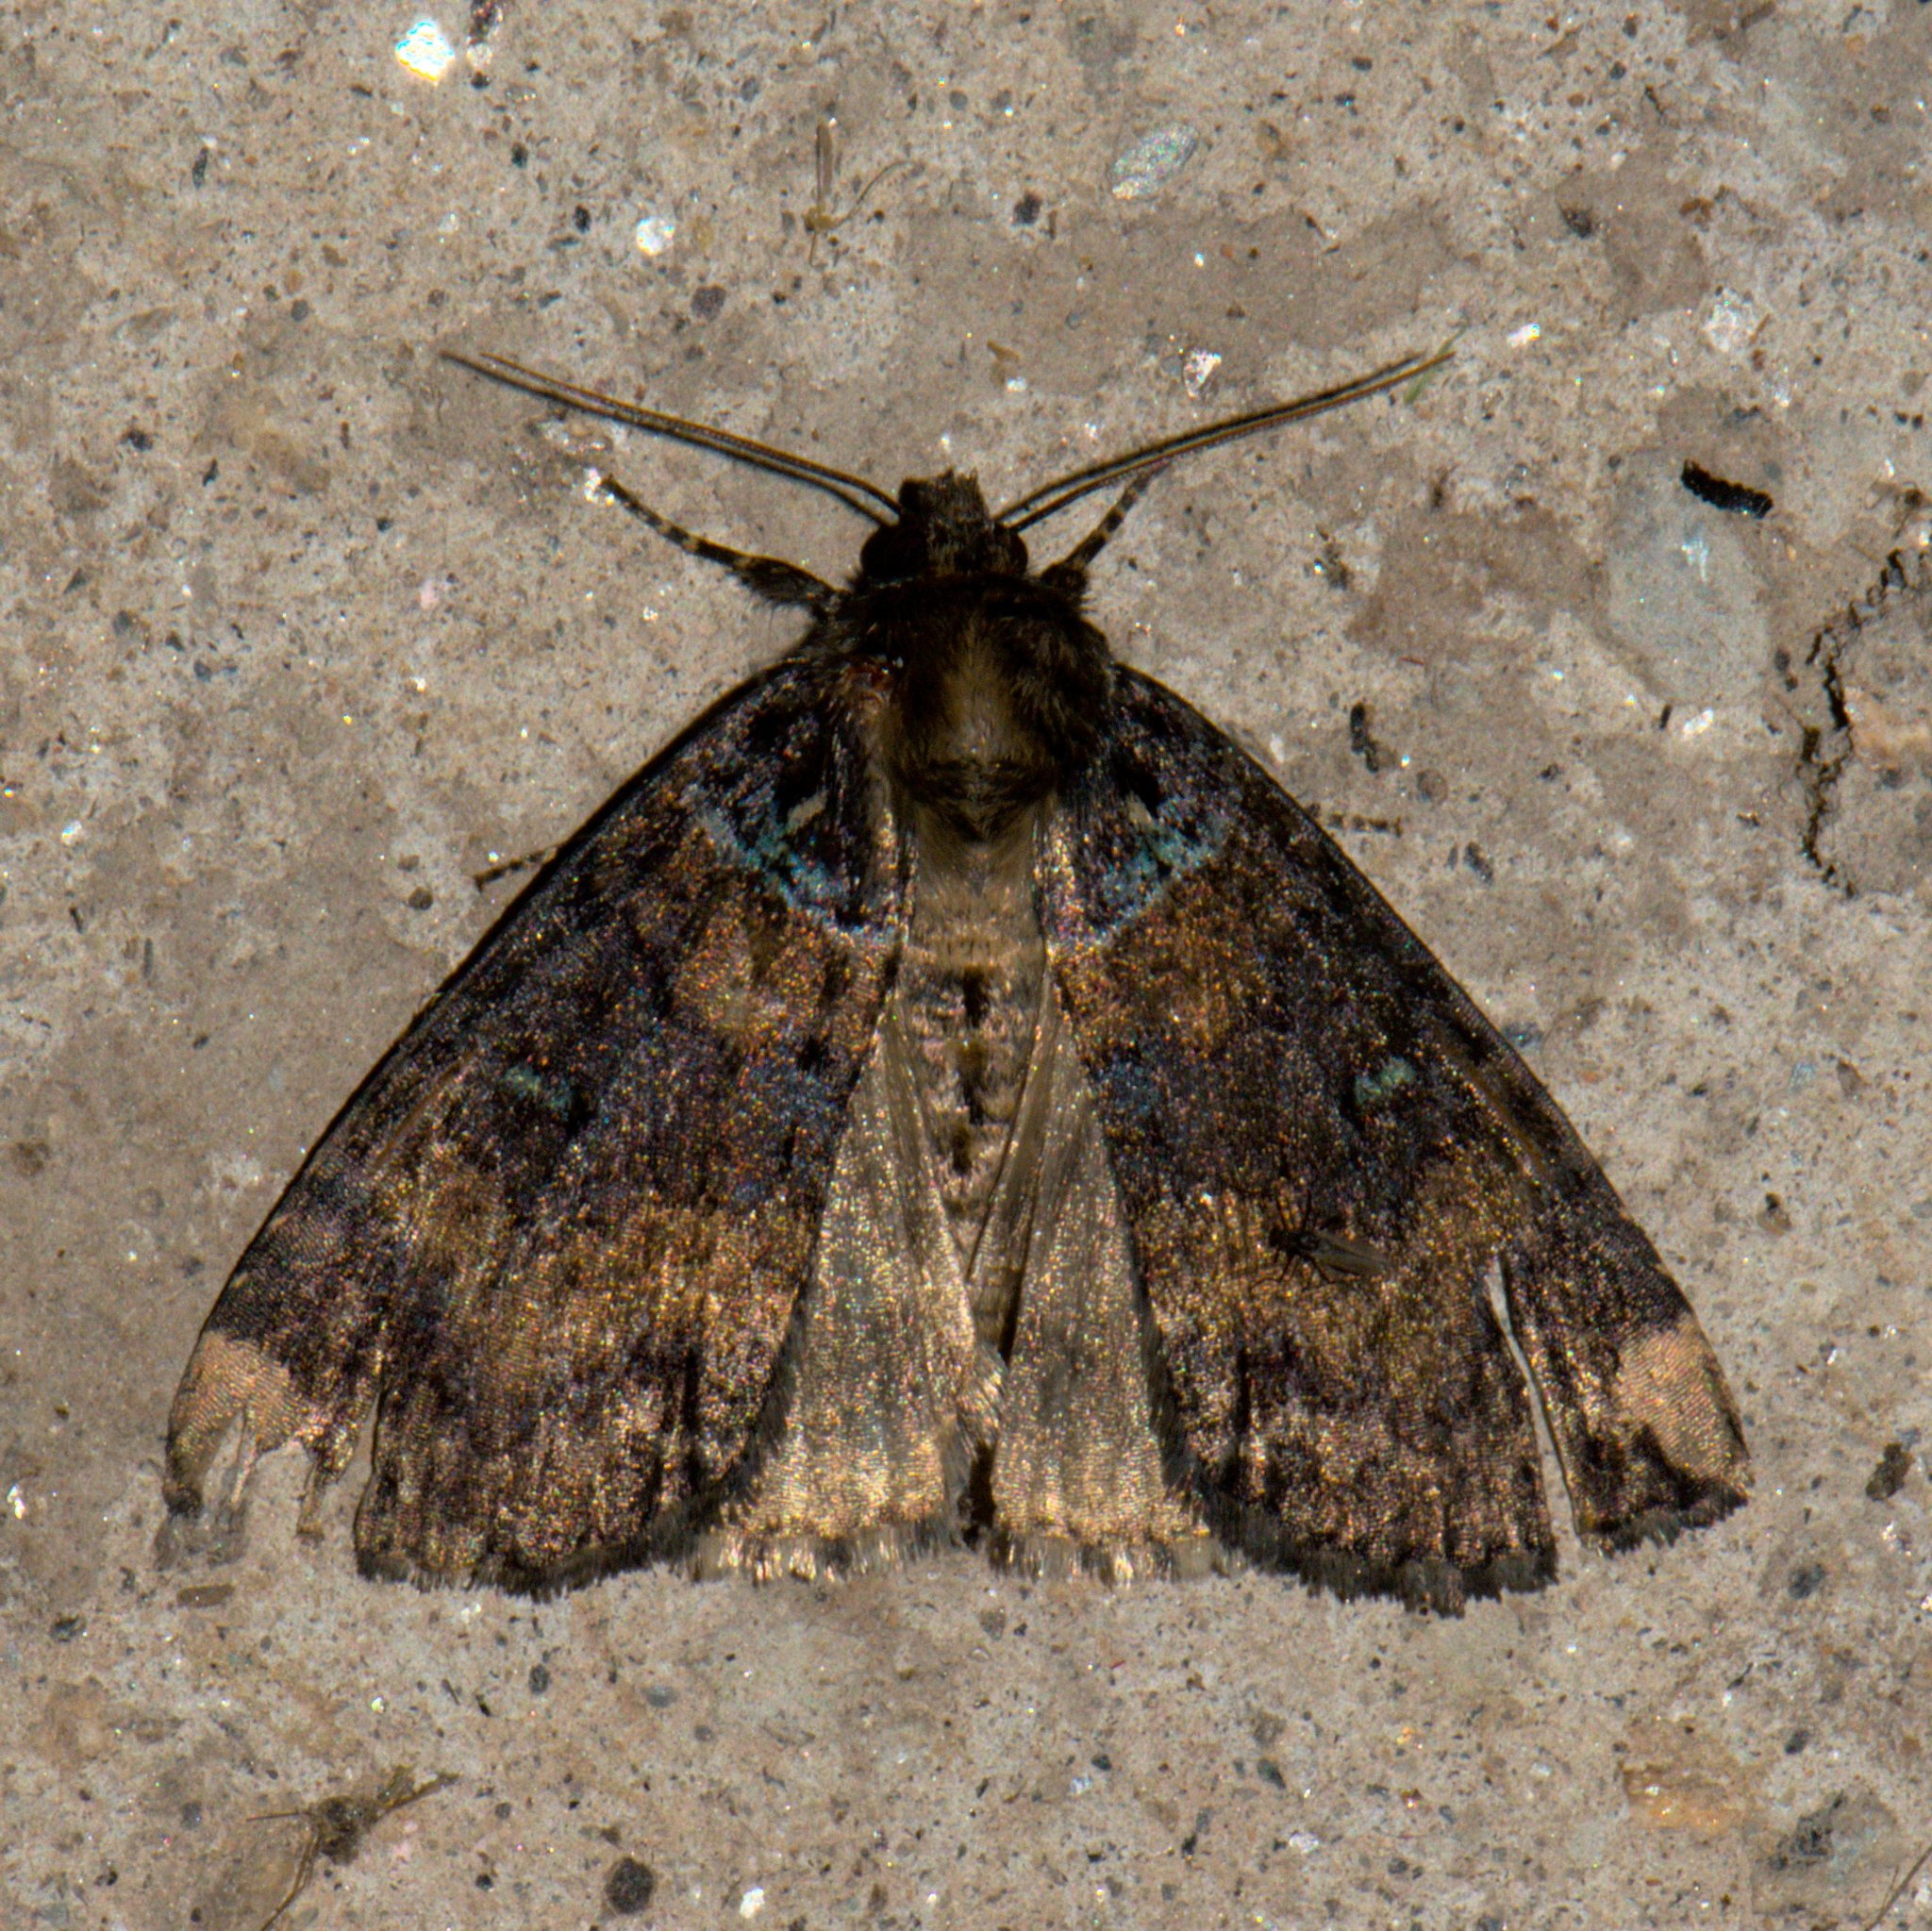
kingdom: Animalia
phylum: Arthropoda
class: Insecta
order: Lepidoptera
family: Drepanidae
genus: Paragnorima
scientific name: Paragnorima fuscescens
